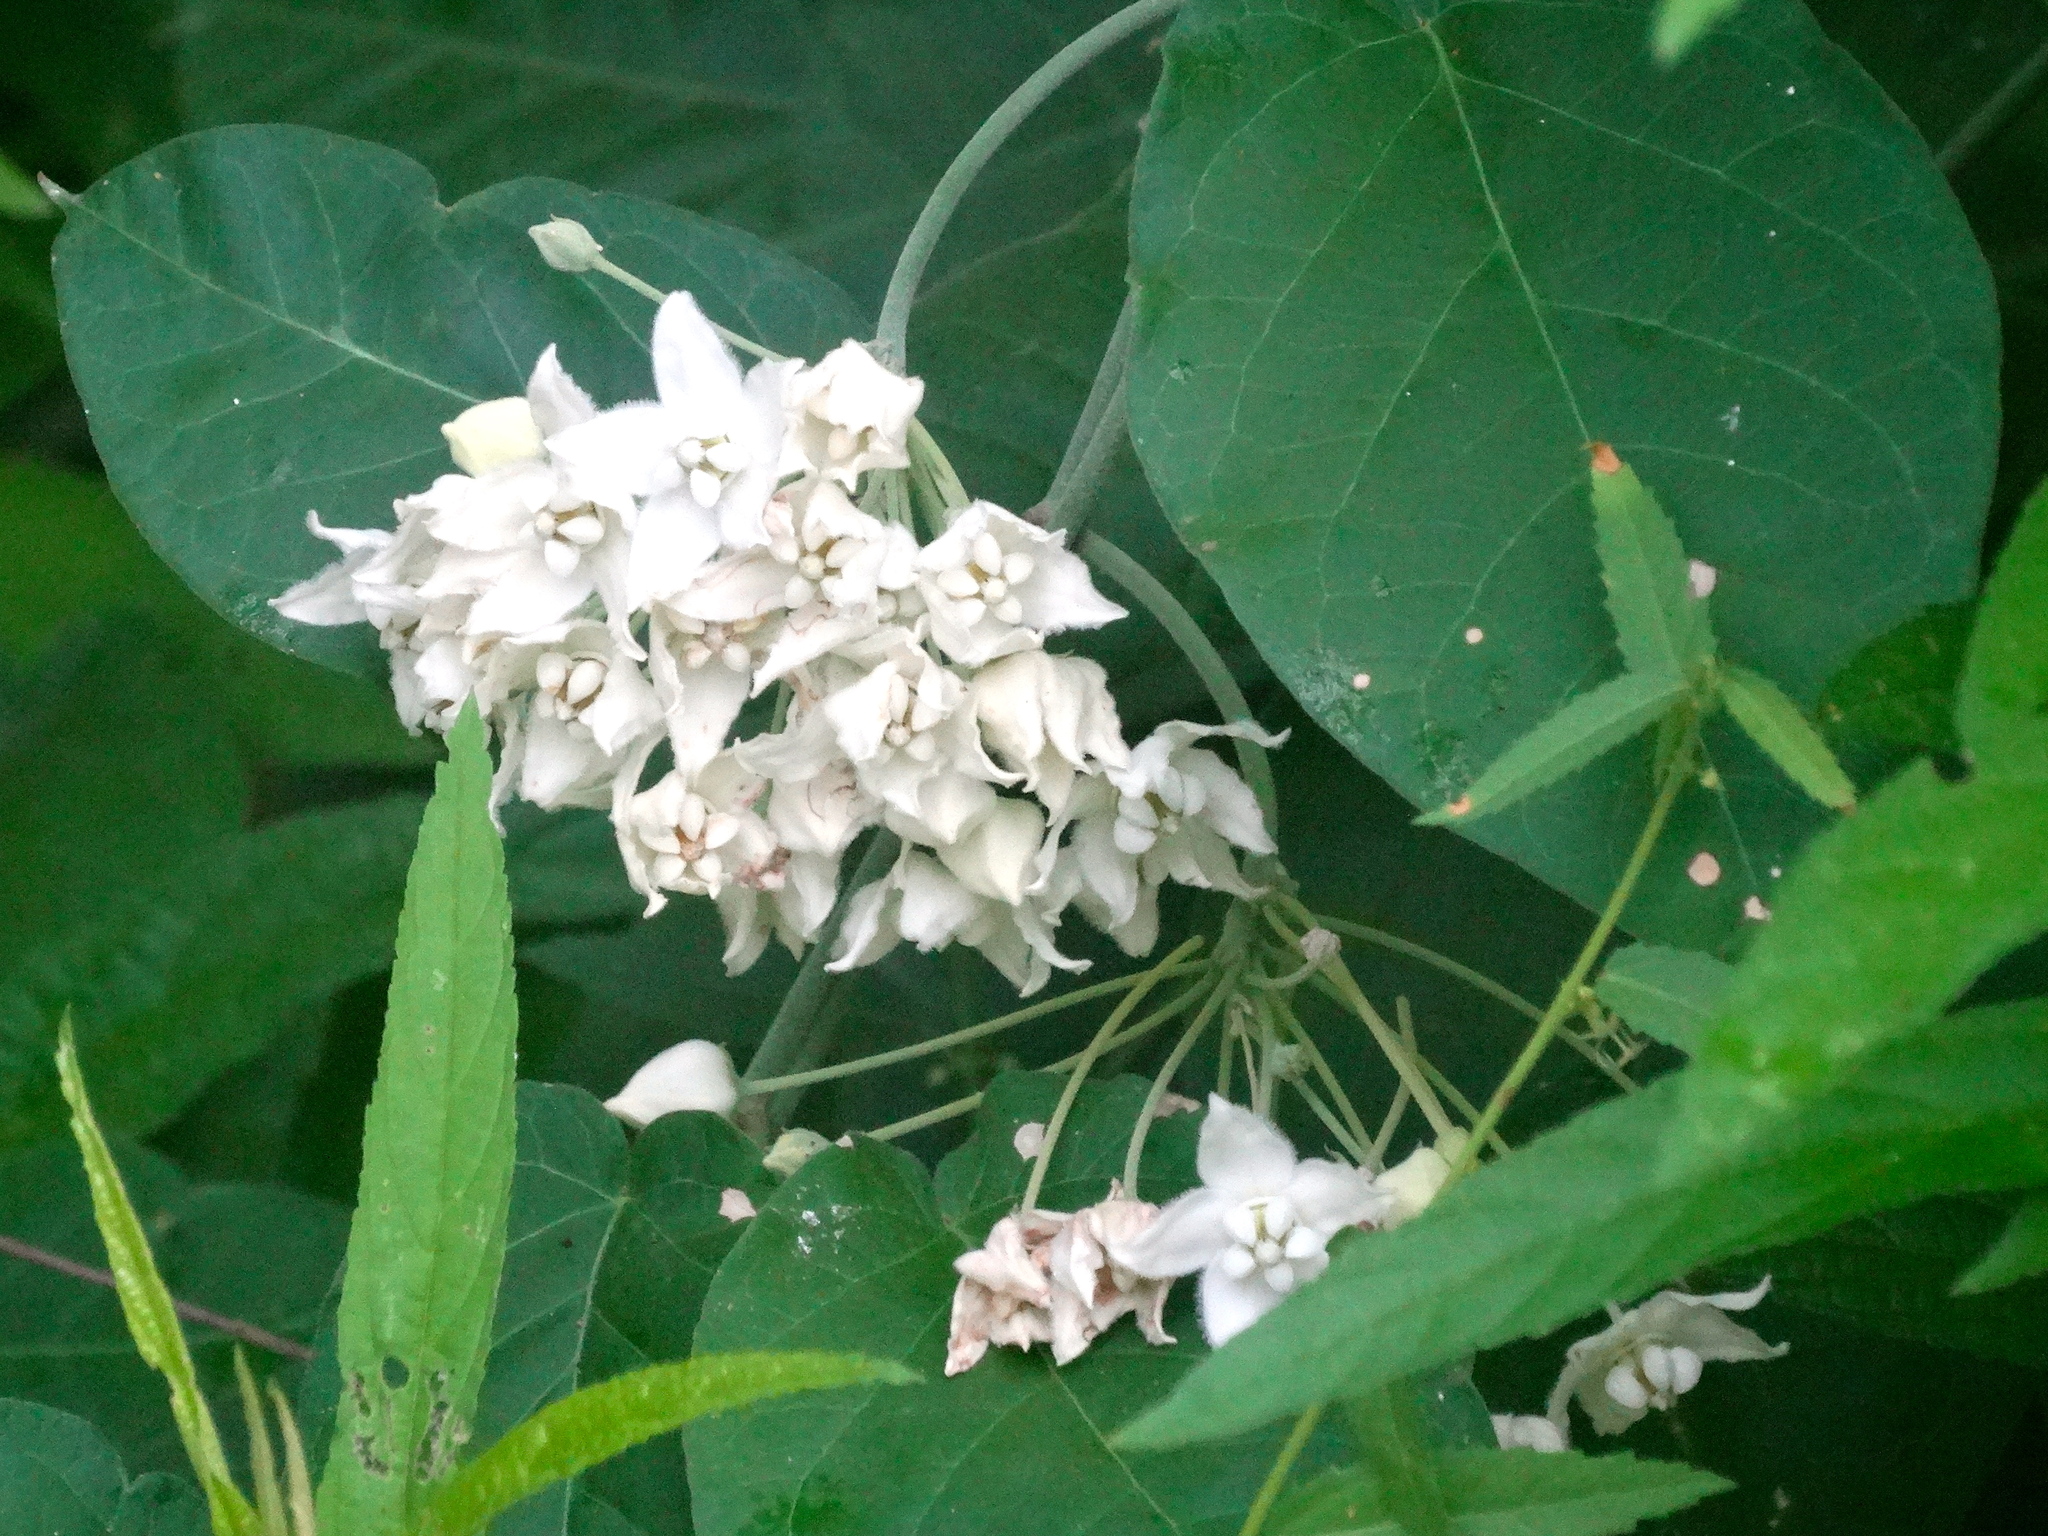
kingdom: Plantae
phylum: Tracheophyta
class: Magnoliopsida
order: Gentianales
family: Apocynaceae
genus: Funastrum
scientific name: Funastrum pannosum
